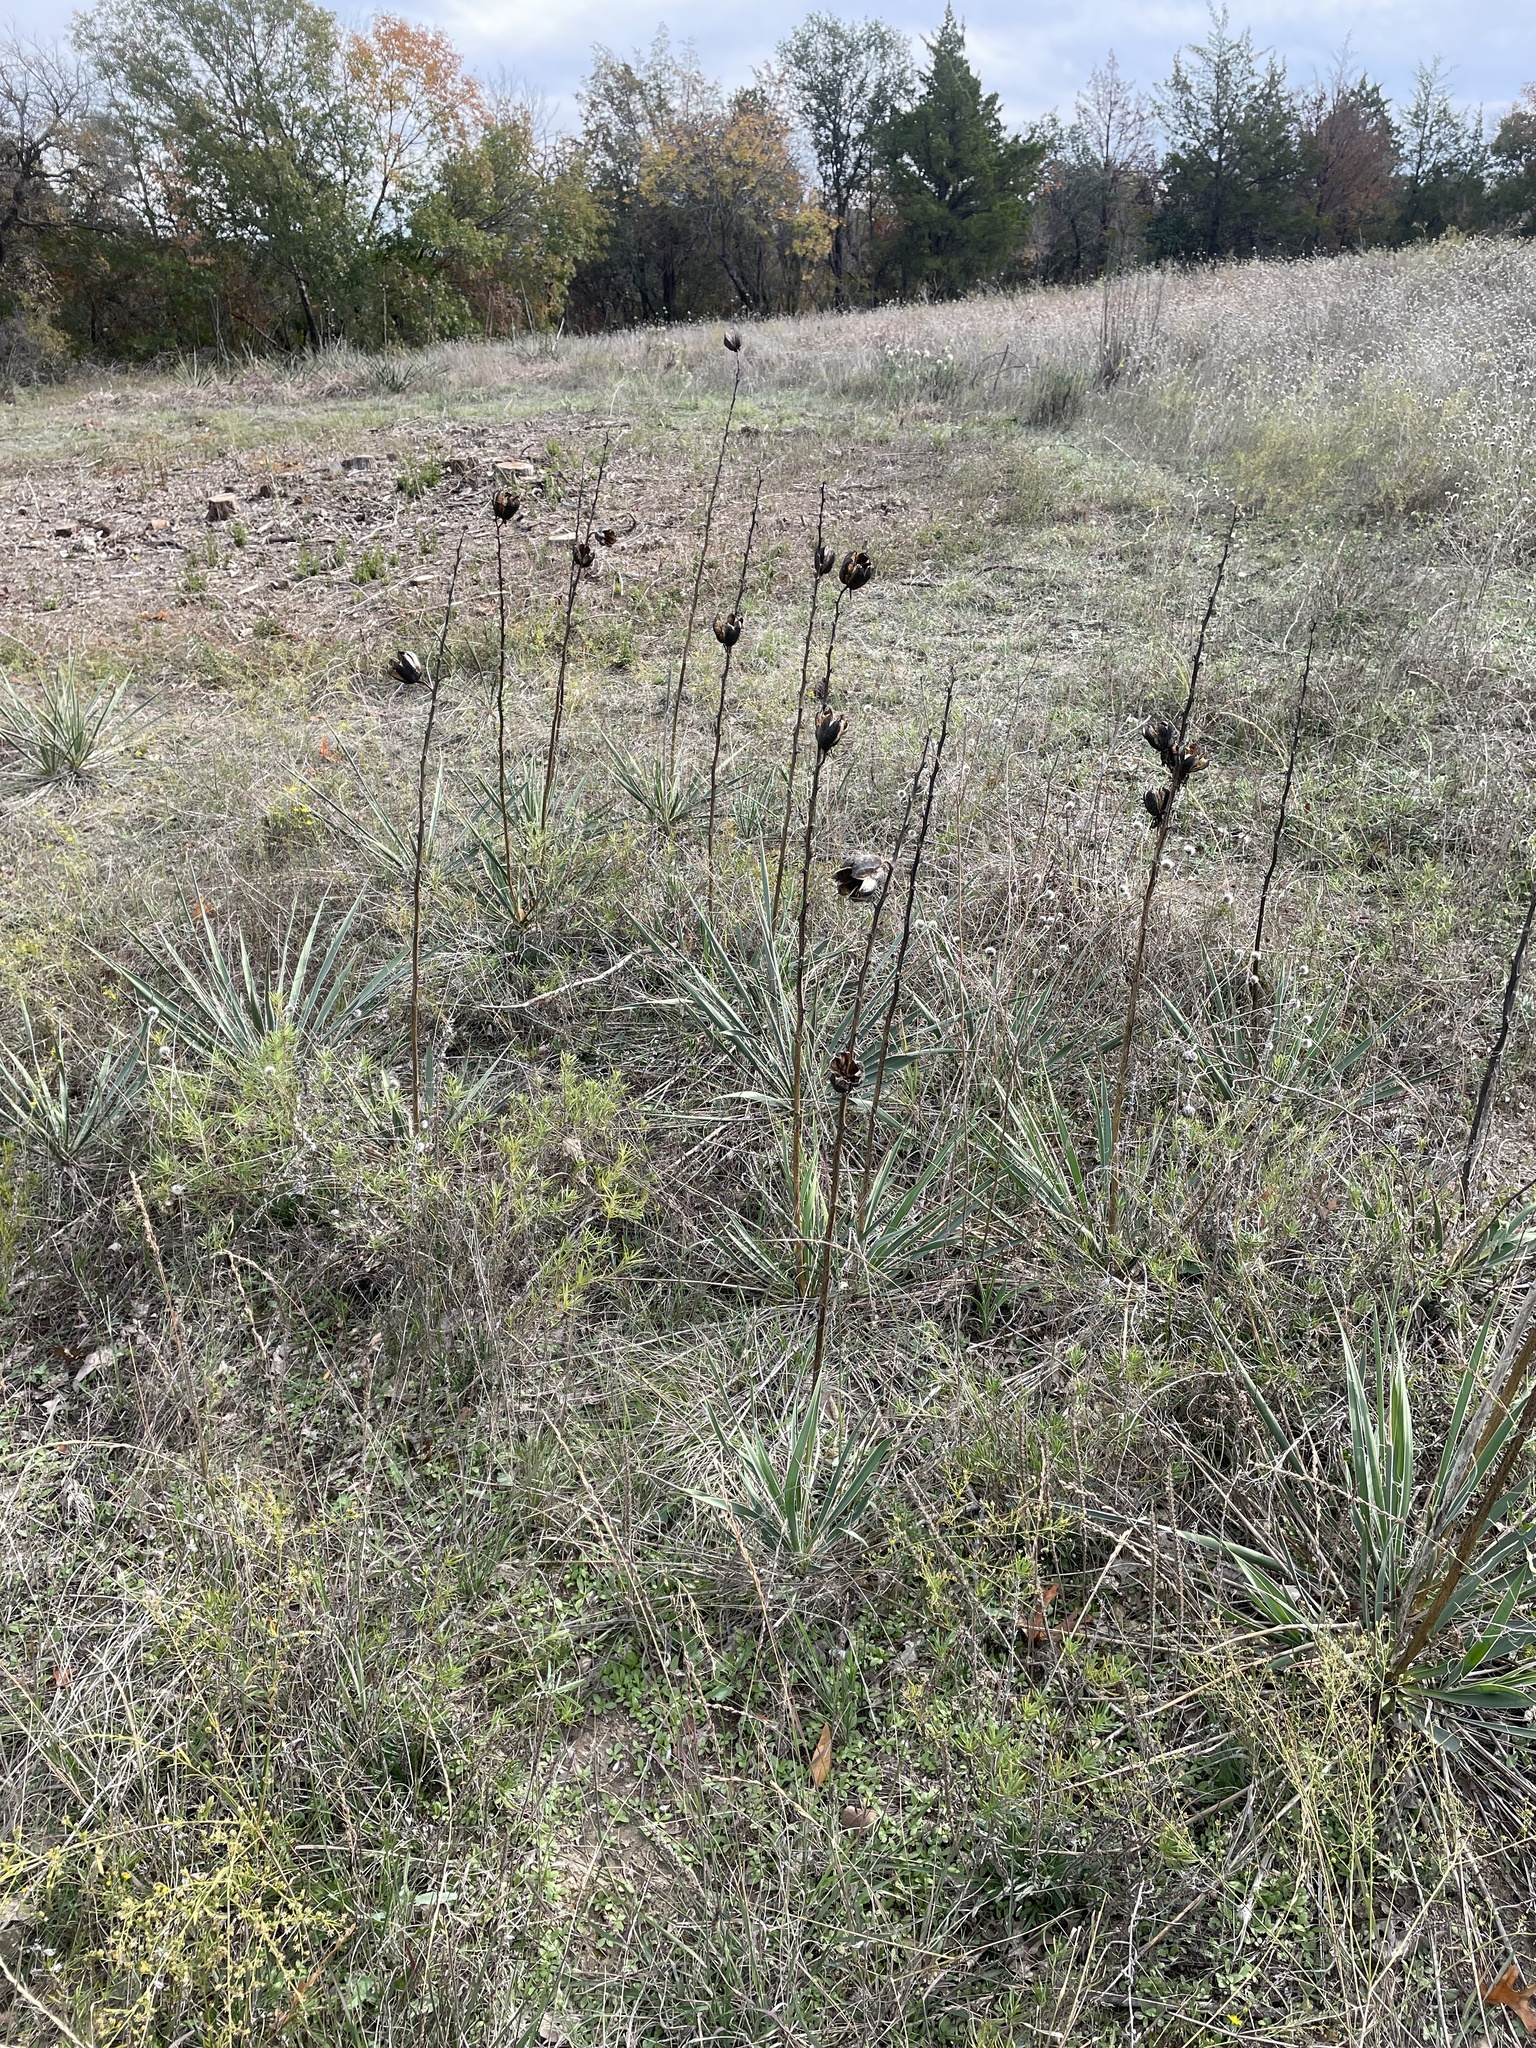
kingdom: Plantae
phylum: Tracheophyta
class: Liliopsida
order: Asparagales
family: Asparagaceae
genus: Yucca
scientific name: Yucca arkansana
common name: Arkansas yucca
